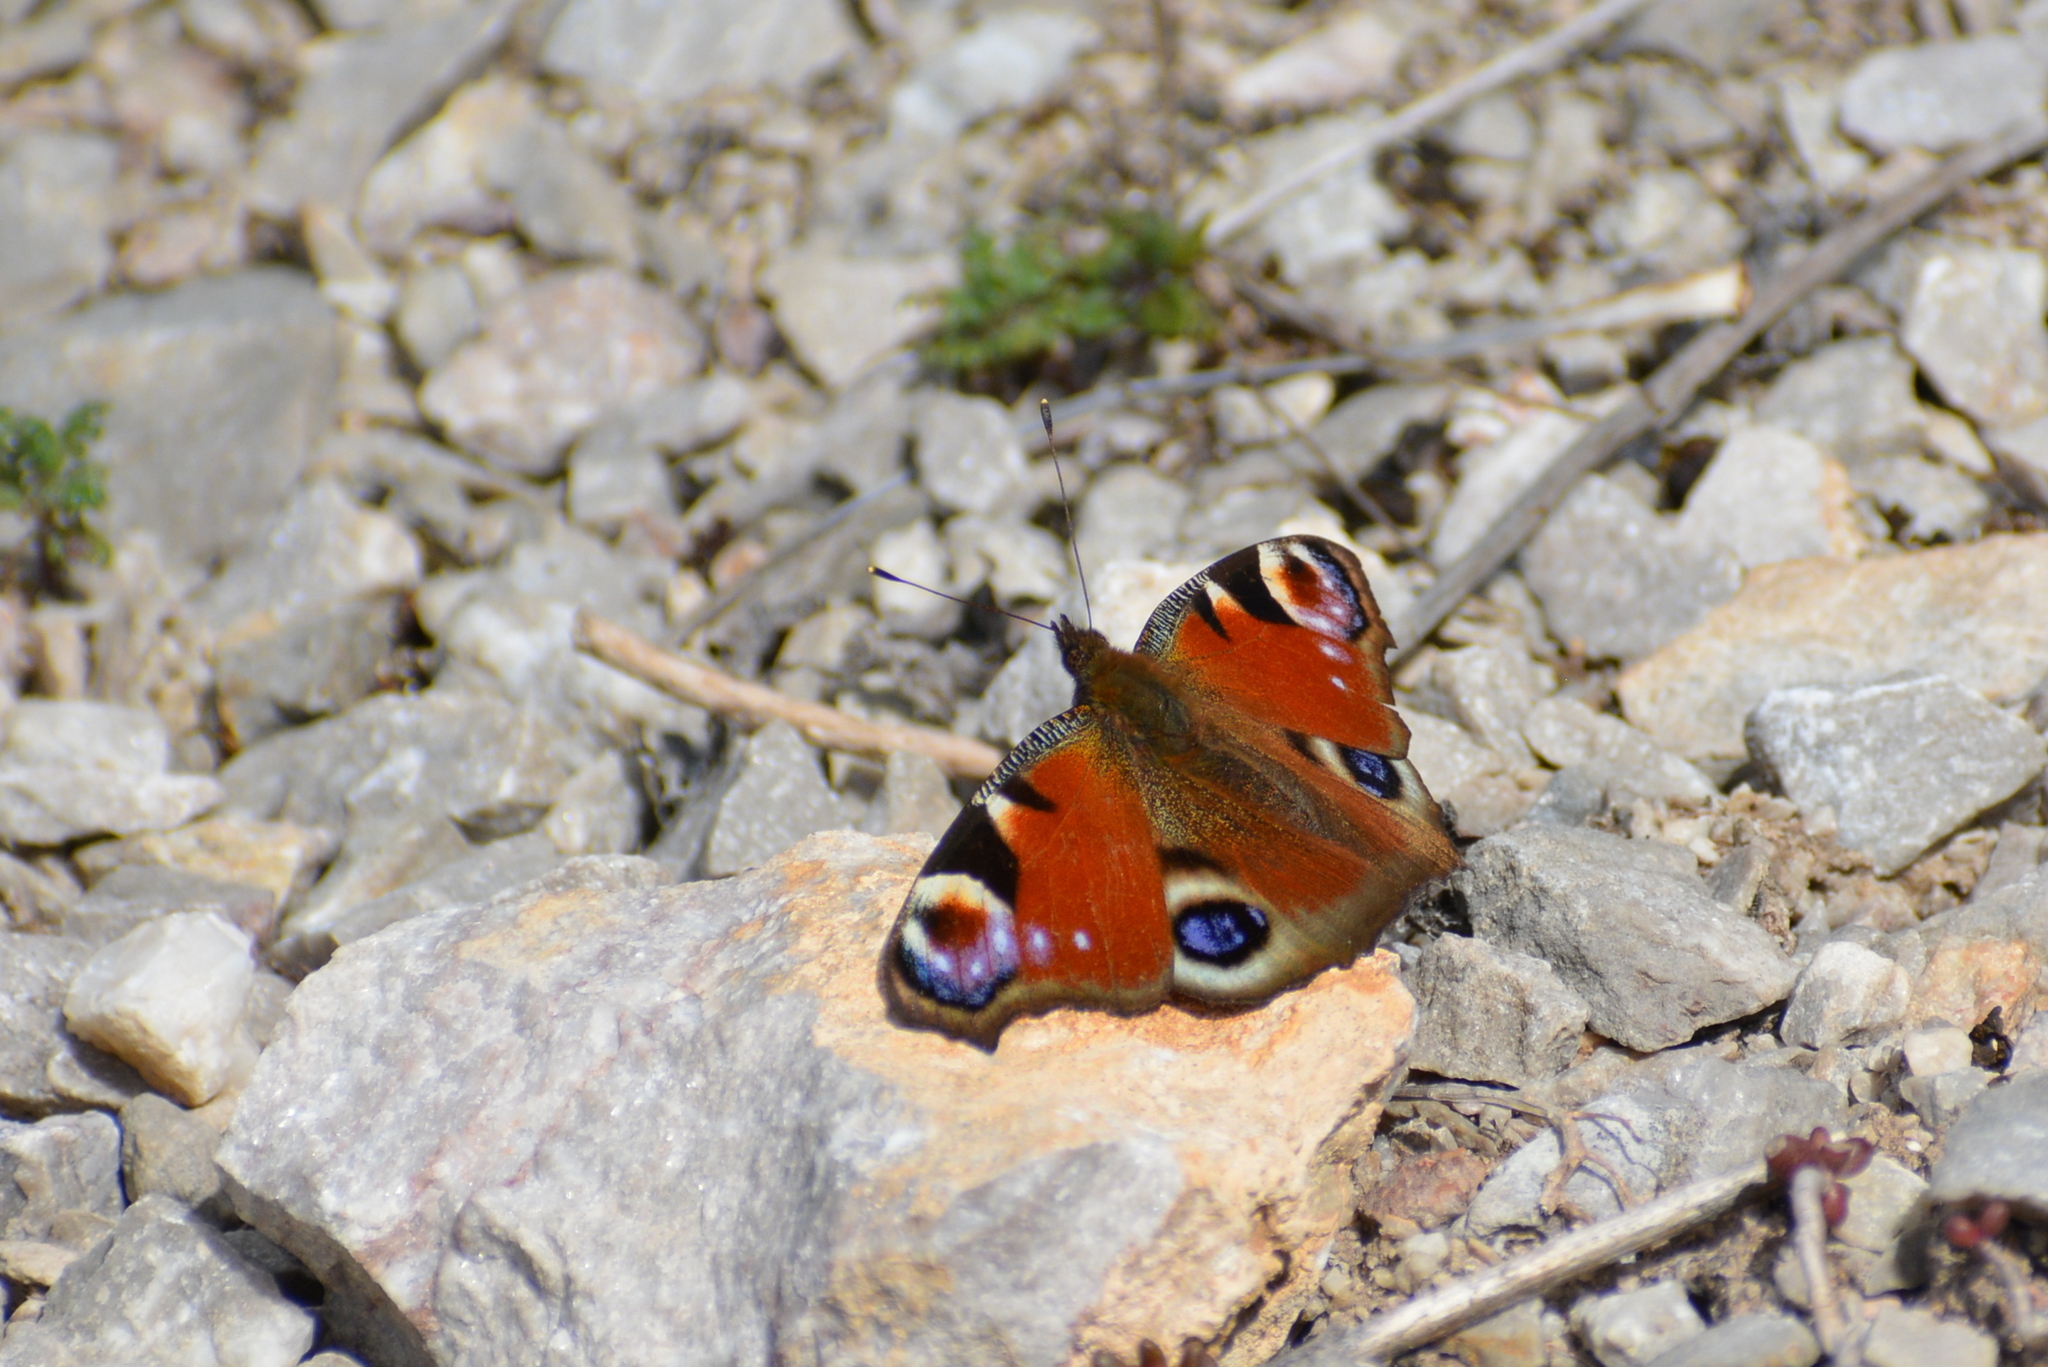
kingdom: Animalia
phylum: Arthropoda
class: Insecta
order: Lepidoptera
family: Nymphalidae
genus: Aglais
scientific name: Aglais io
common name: Peacock
